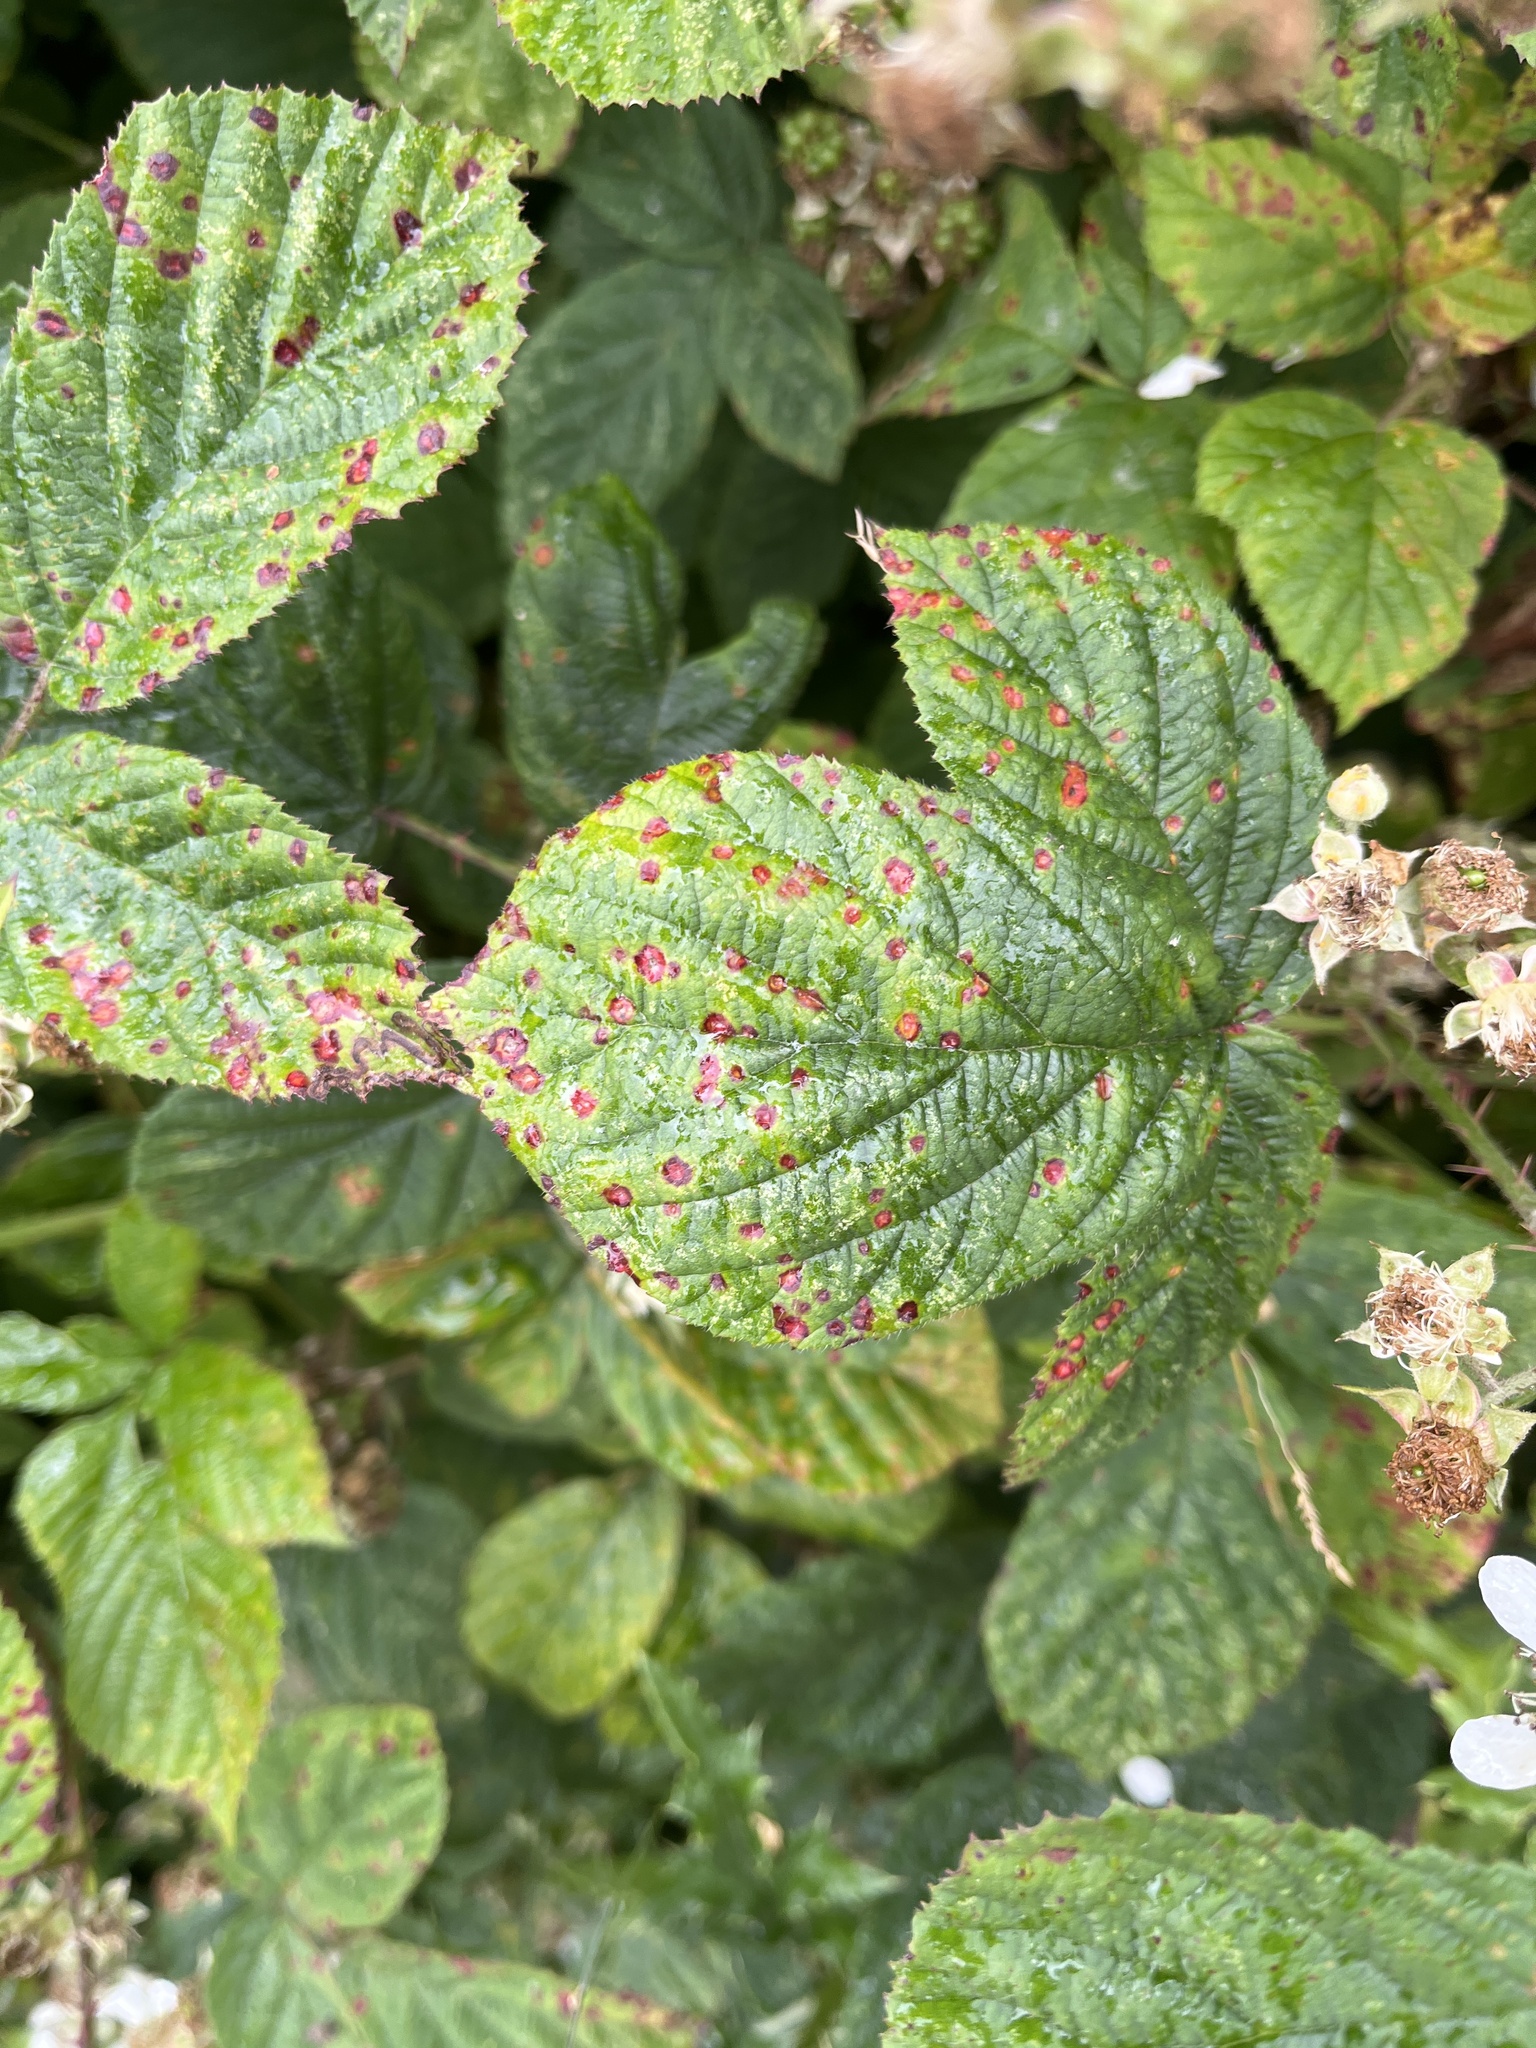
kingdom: Fungi
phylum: Basidiomycota
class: Pucciniomycetes
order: Pucciniales
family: Phragmidiaceae
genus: Phragmidium
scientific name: Phragmidium violaceum
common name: Violet bramble rust
